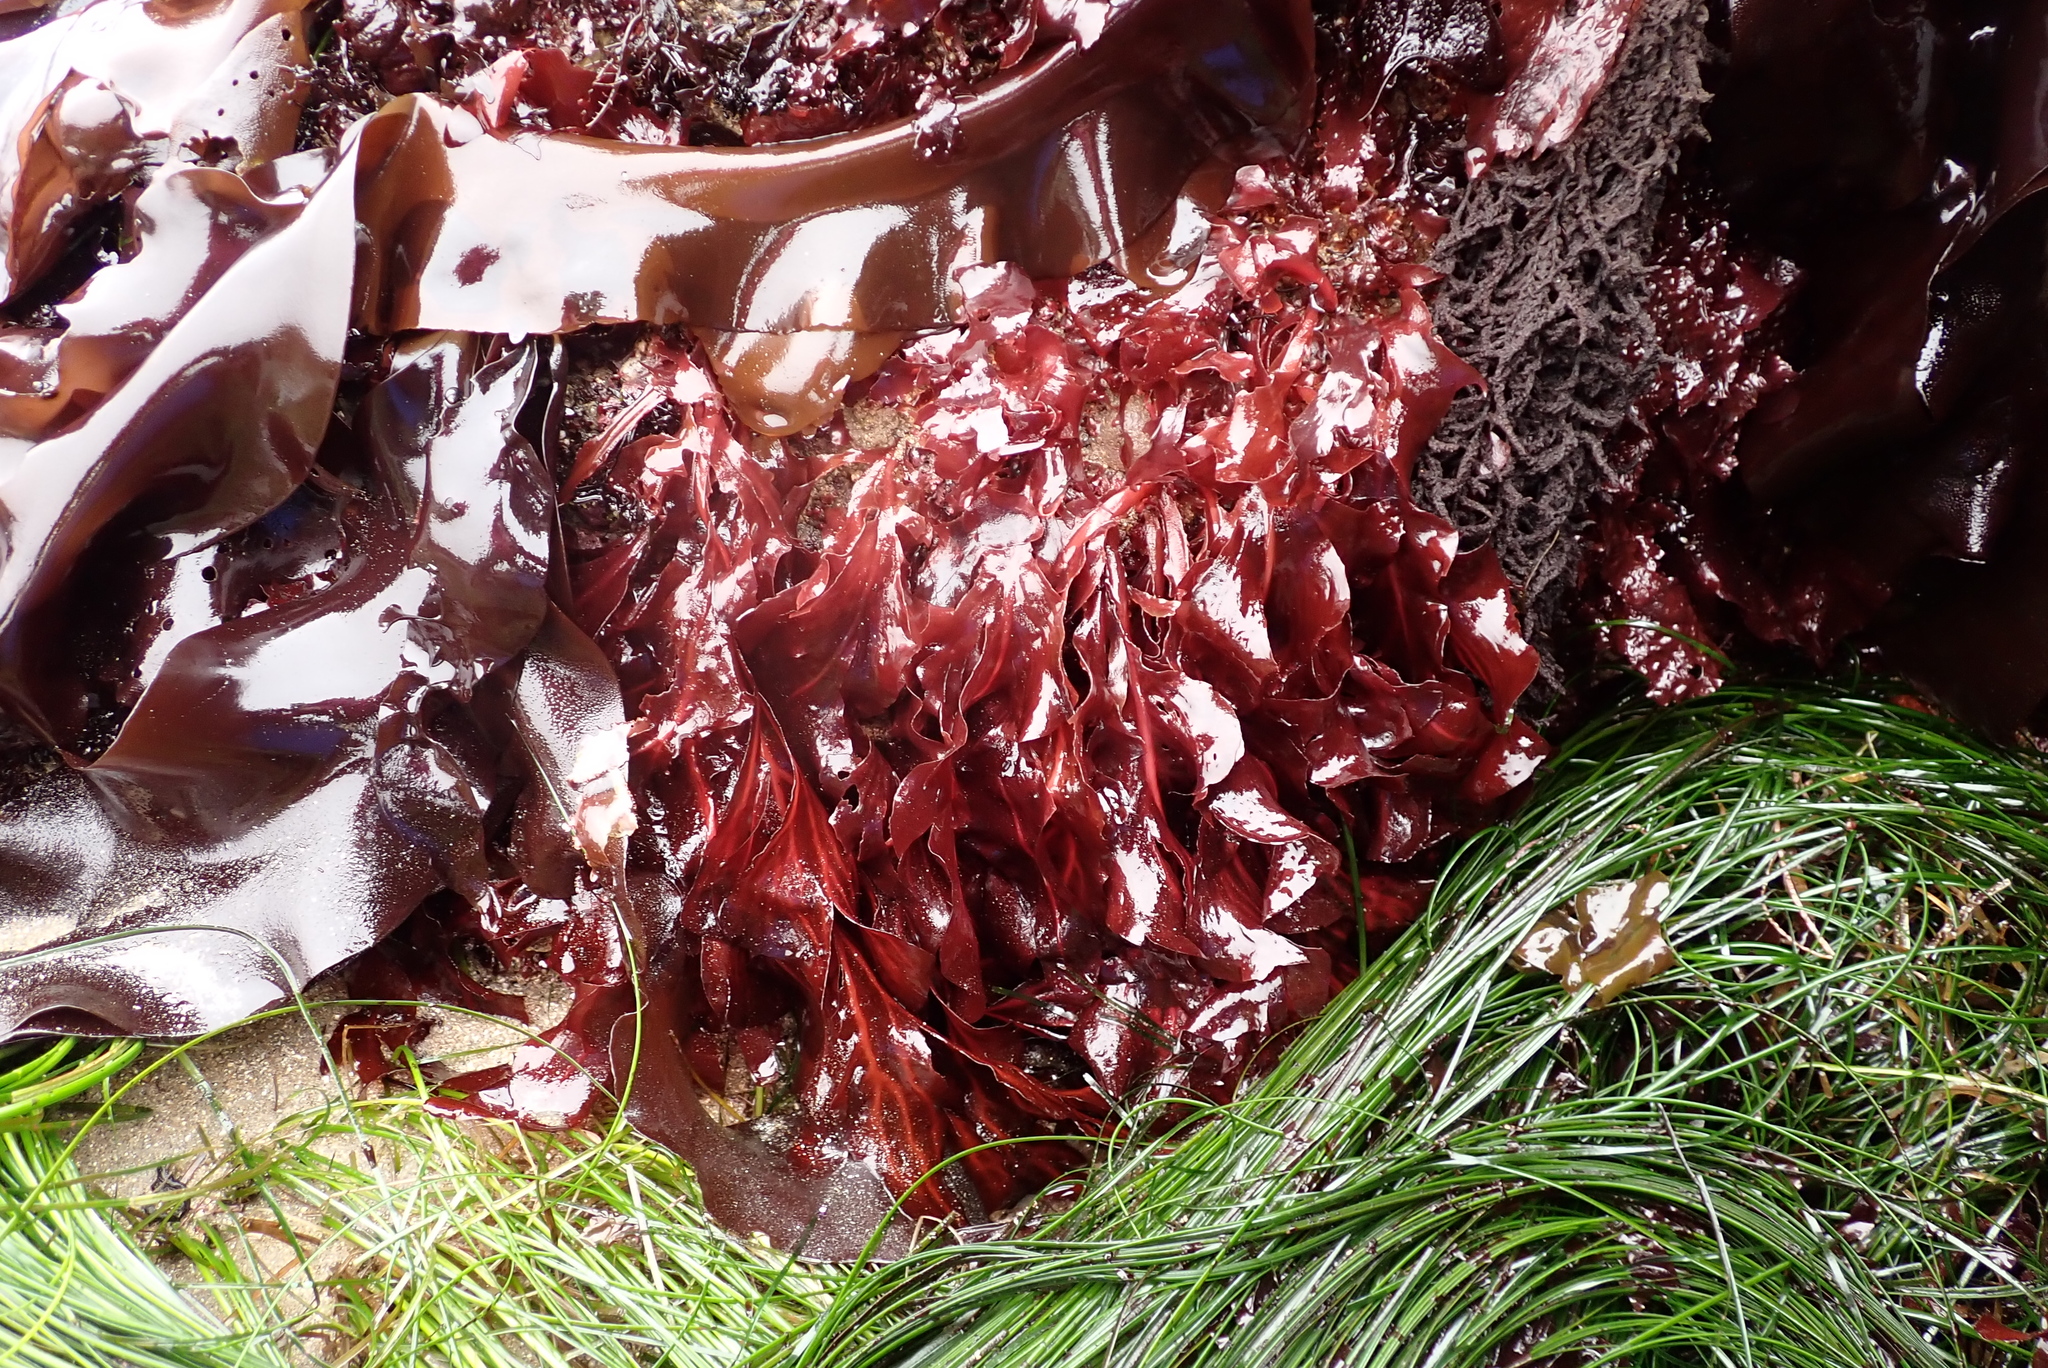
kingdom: Plantae
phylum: Rhodophyta
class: Florideophyceae
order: Gigartinales
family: Kallymeniaceae
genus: Erythrophyllum
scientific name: Erythrophyllum delesserioides
